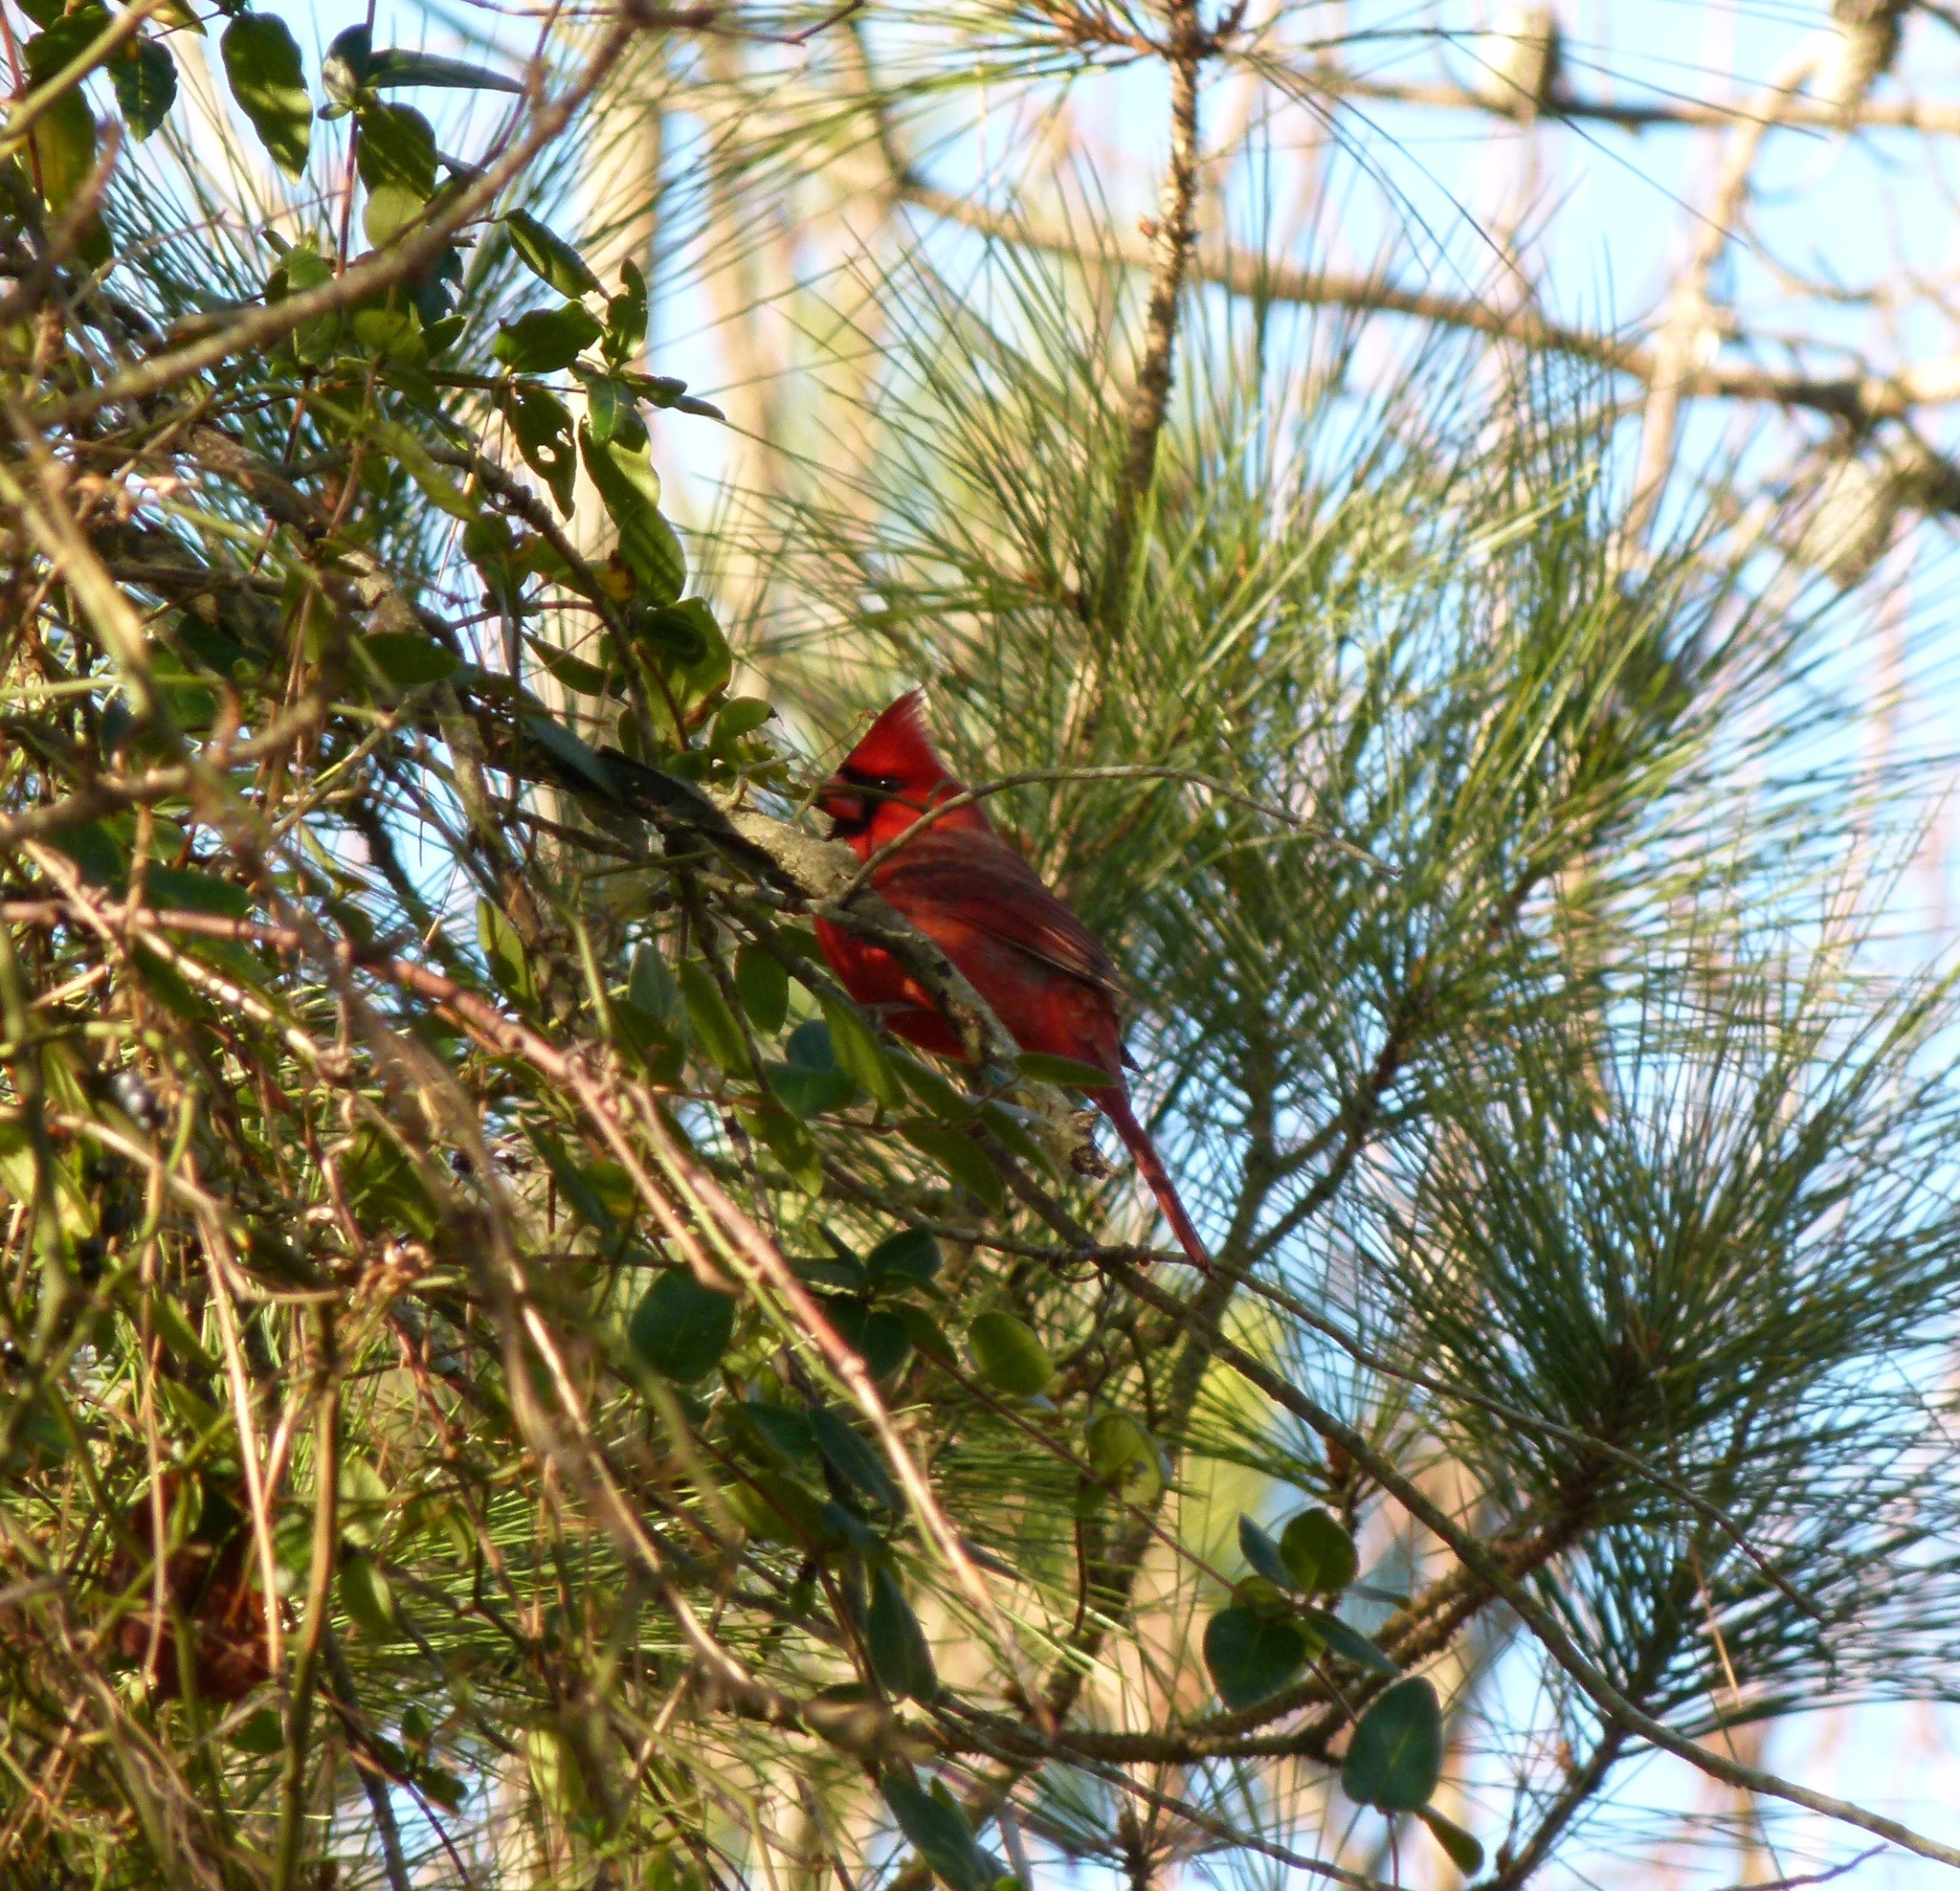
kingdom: Animalia
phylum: Chordata
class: Aves
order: Passeriformes
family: Cardinalidae
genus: Cardinalis
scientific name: Cardinalis cardinalis
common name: Northern cardinal
